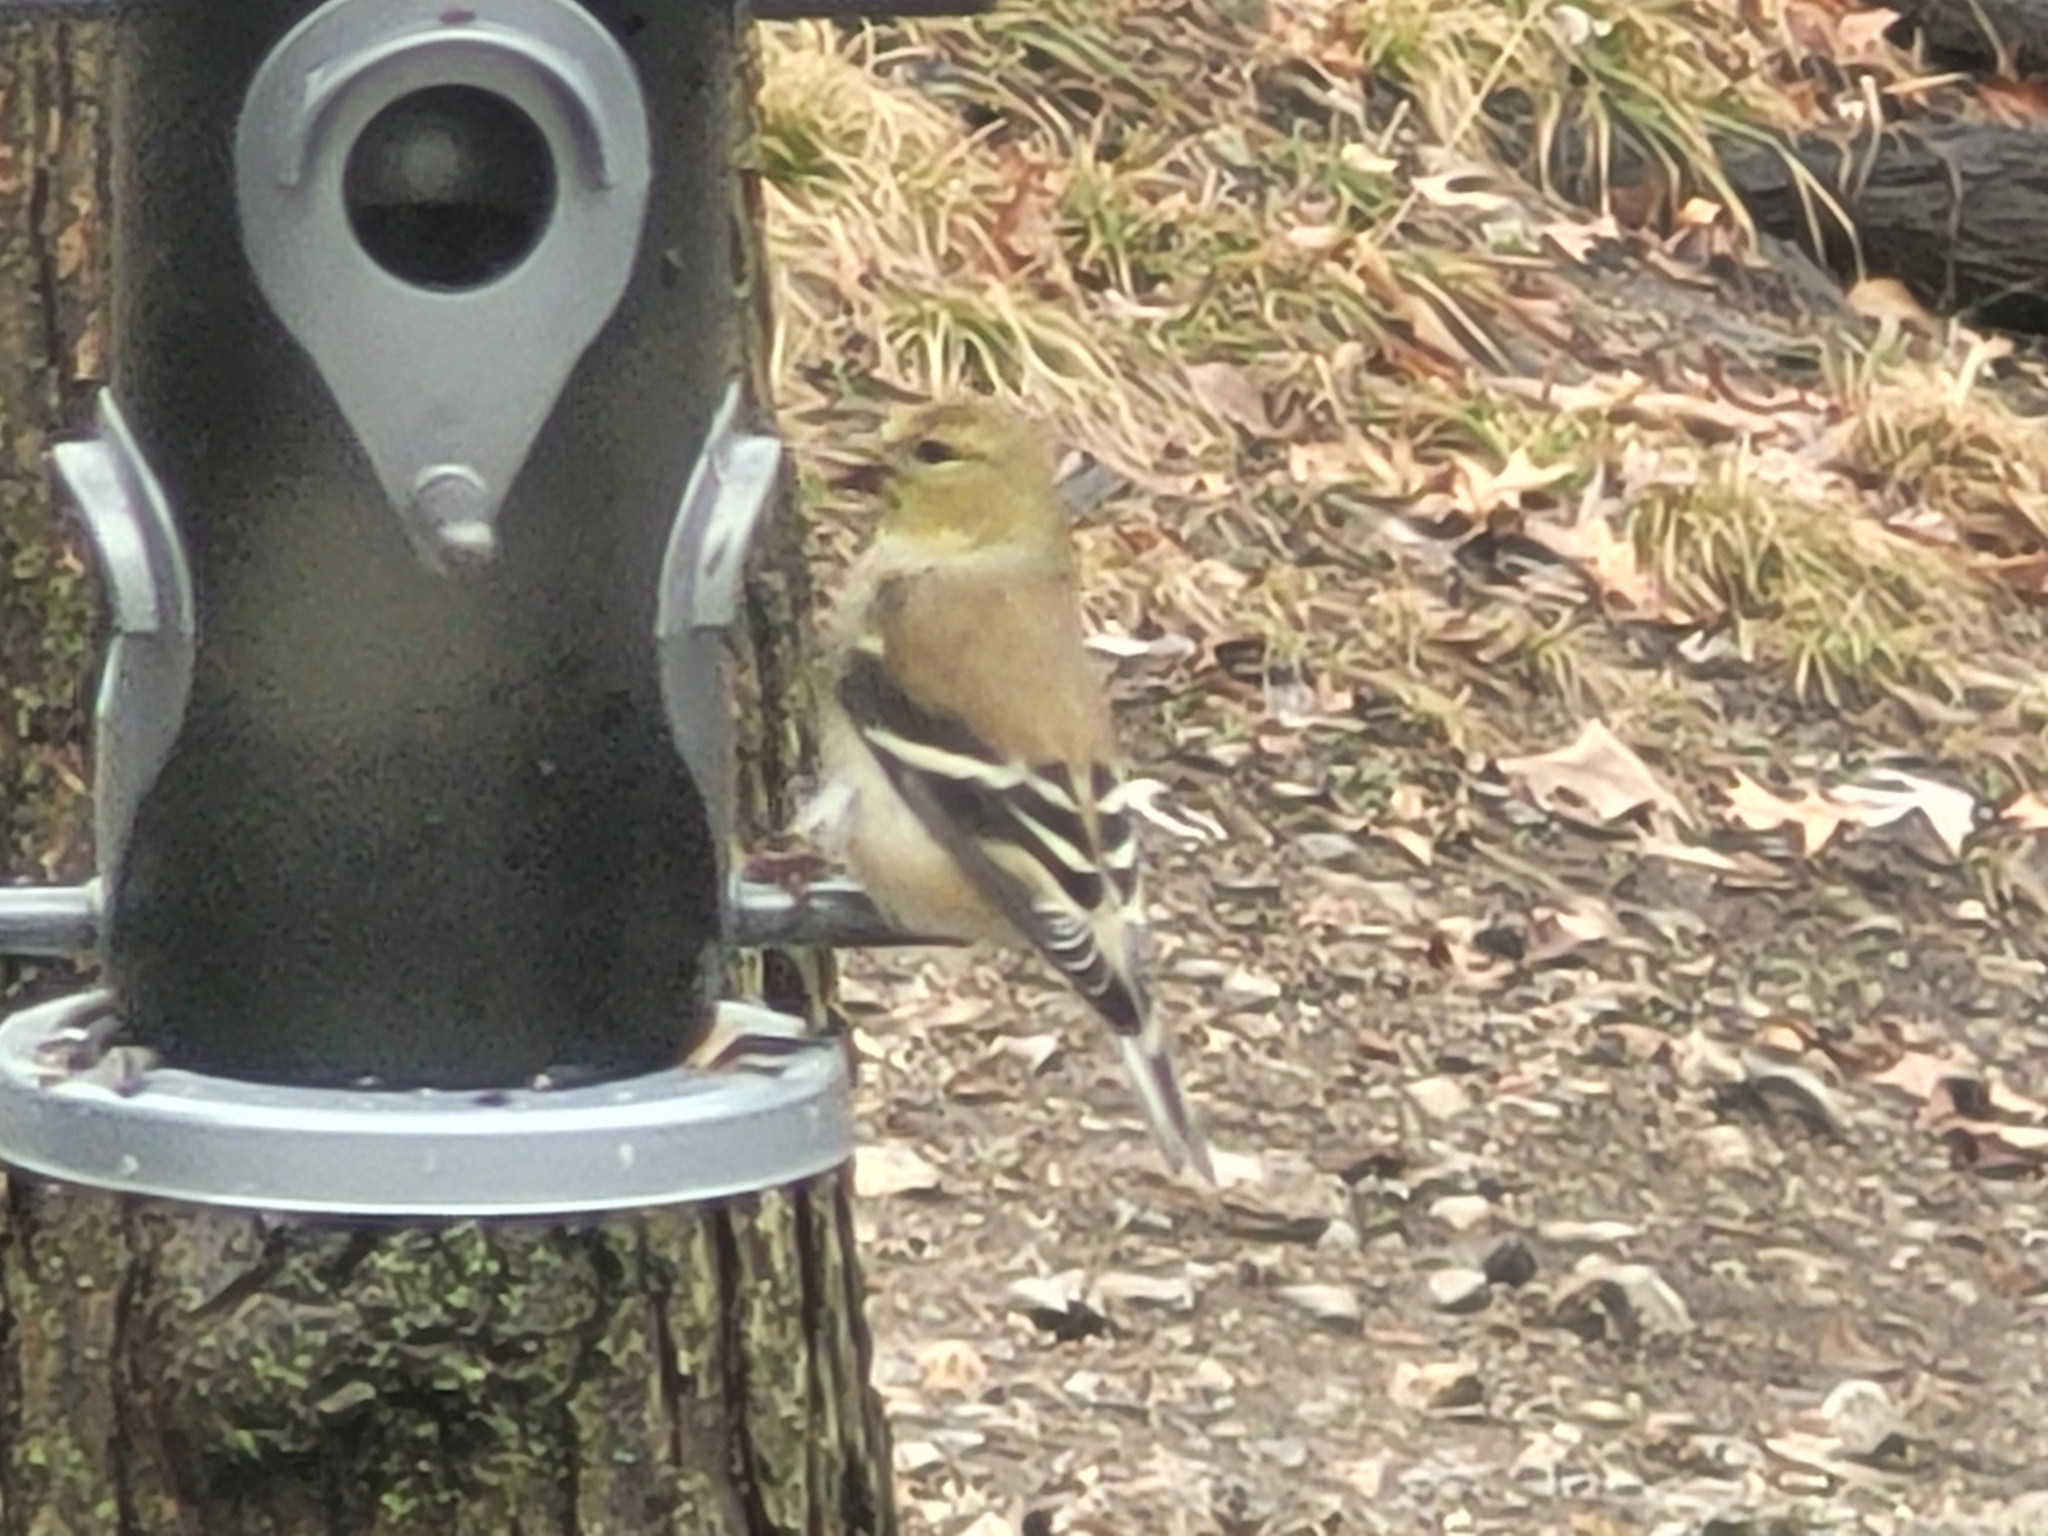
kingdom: Animalia
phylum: Chordata
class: Aves
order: Passeriformes
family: Fringillidae
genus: Spinus
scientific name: Spinus tristis
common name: American goldfinch
